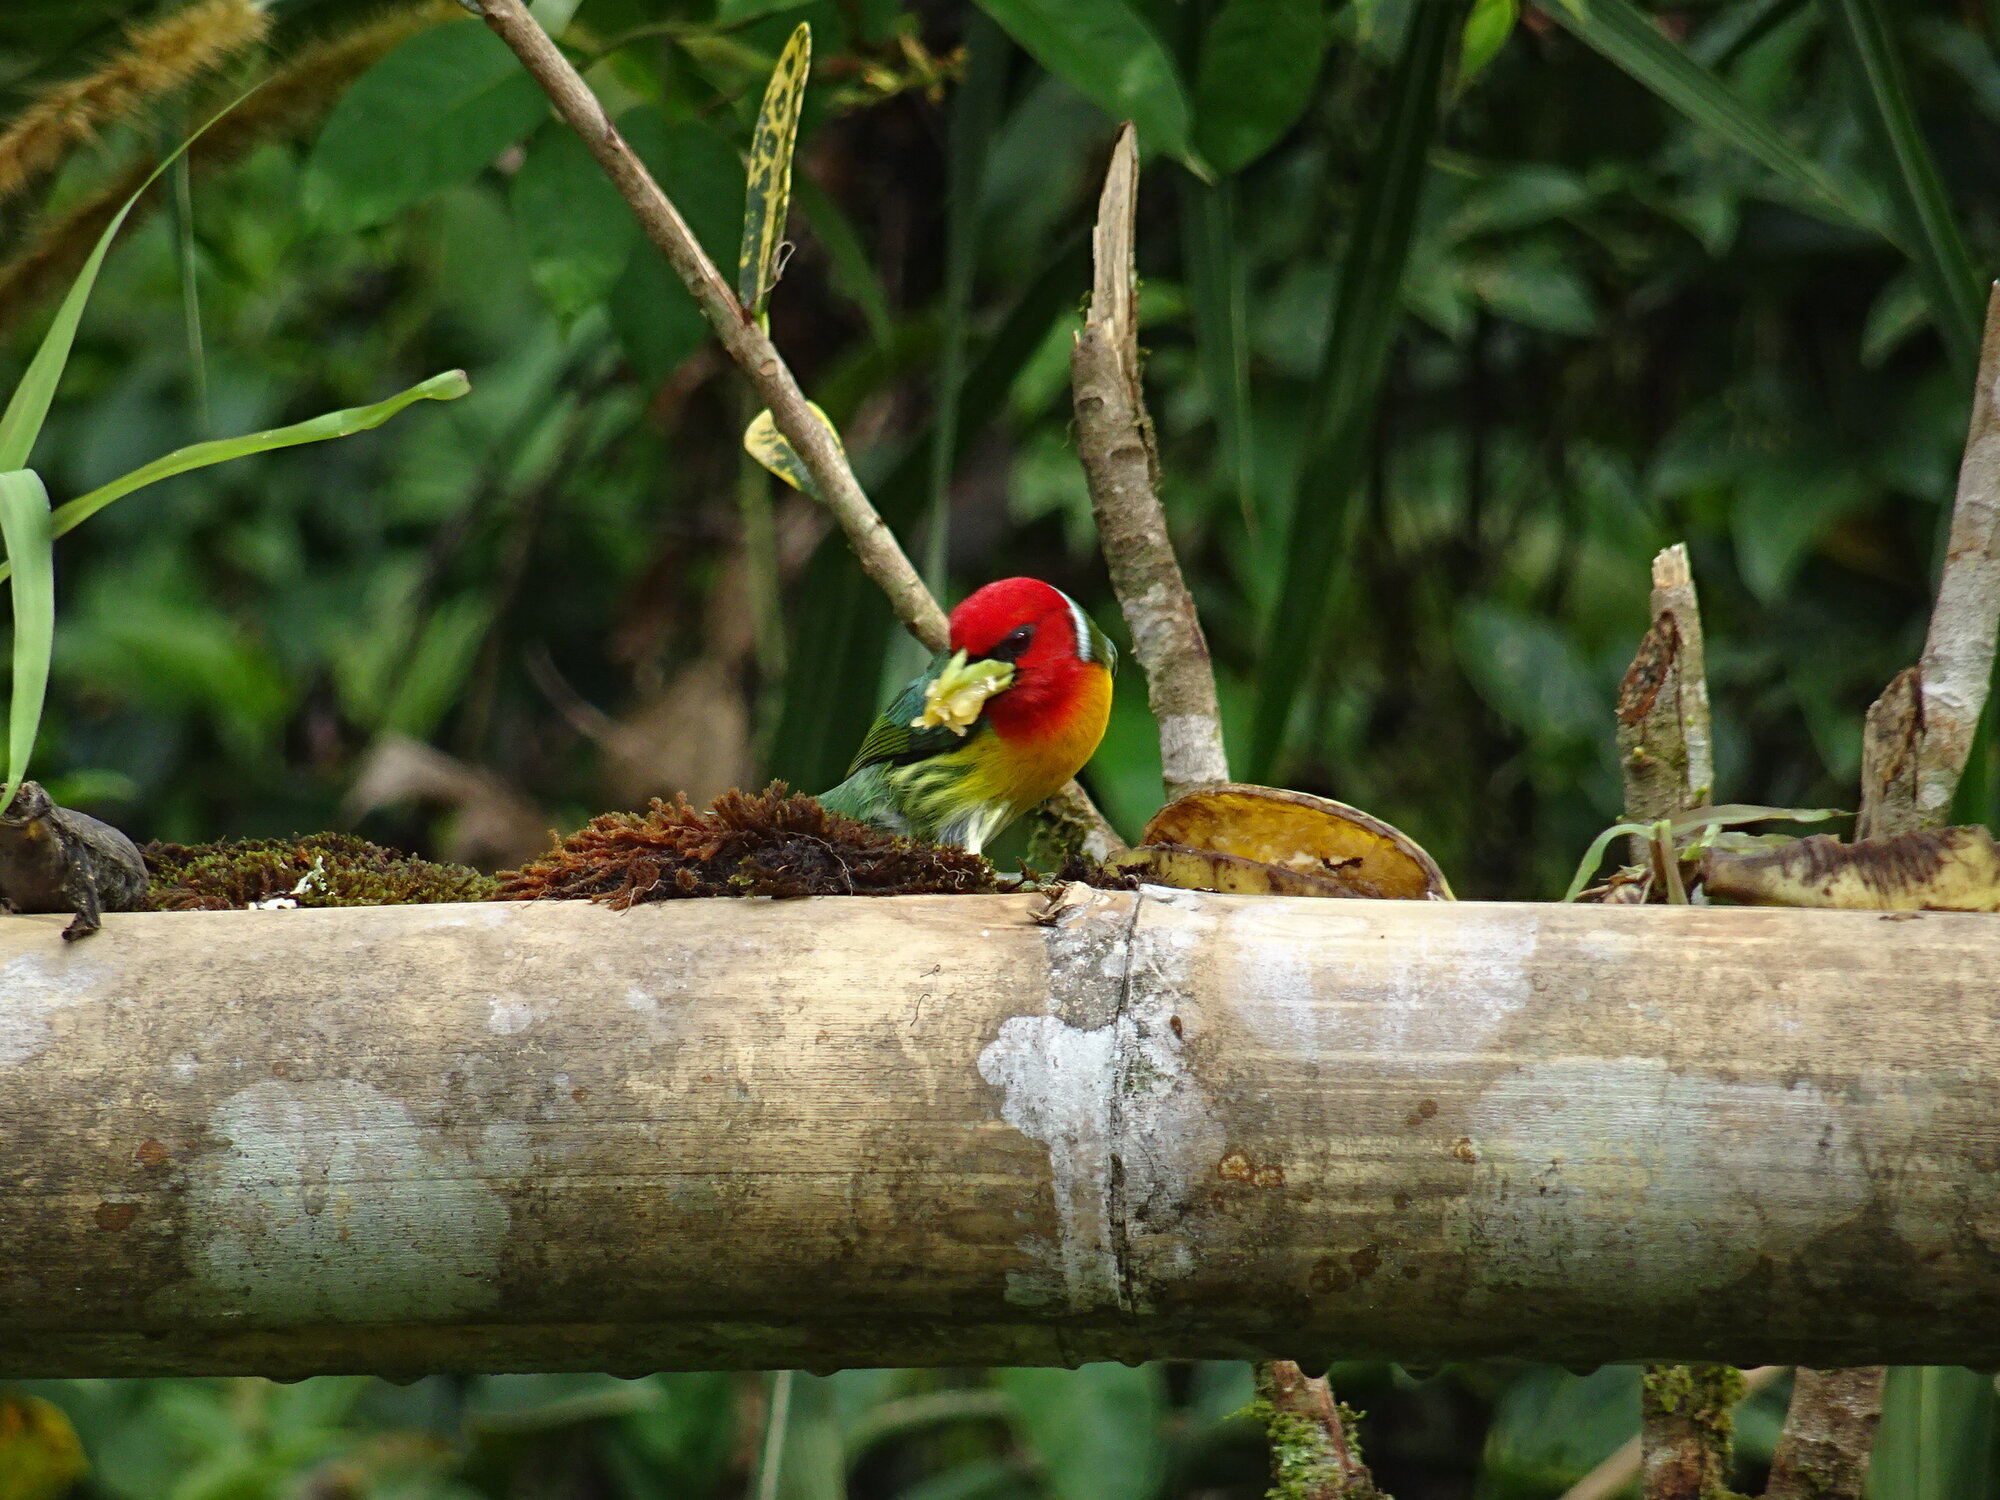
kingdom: Animalia
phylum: Chordata
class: Aves
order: Piciformes
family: Capitonidae
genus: Eubucco
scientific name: Eubucco bourcierii
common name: Red-headed barbet
